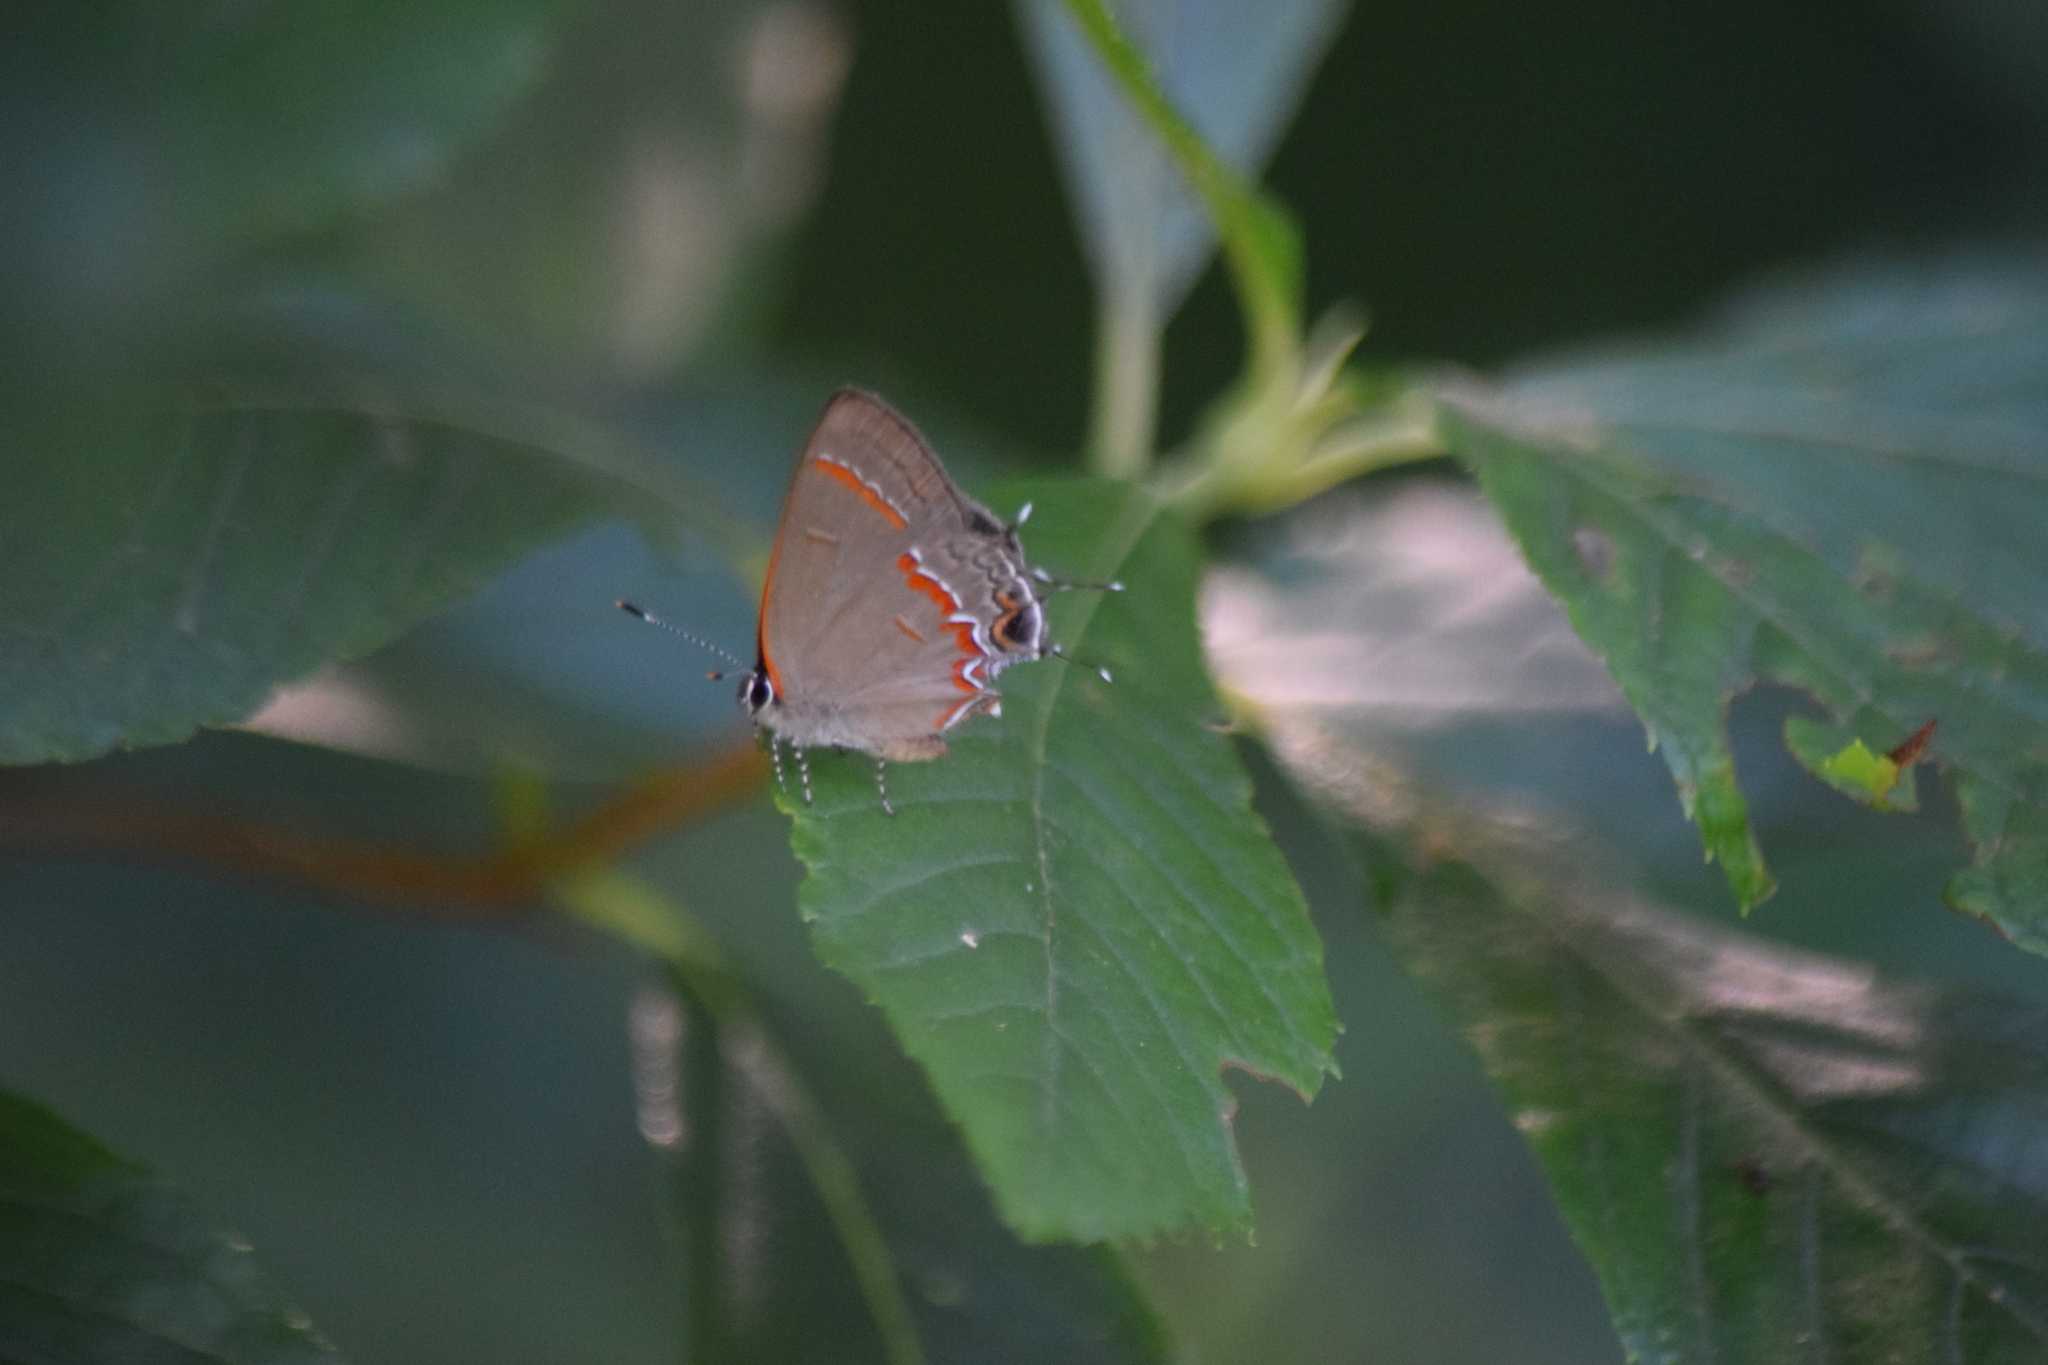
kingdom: Animalia
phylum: Arthropoda
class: Insecta
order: Lepidoptera
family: Lycaenidae
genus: Calycopis
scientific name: Calycopis cecrops
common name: Red-banded hairstreak
